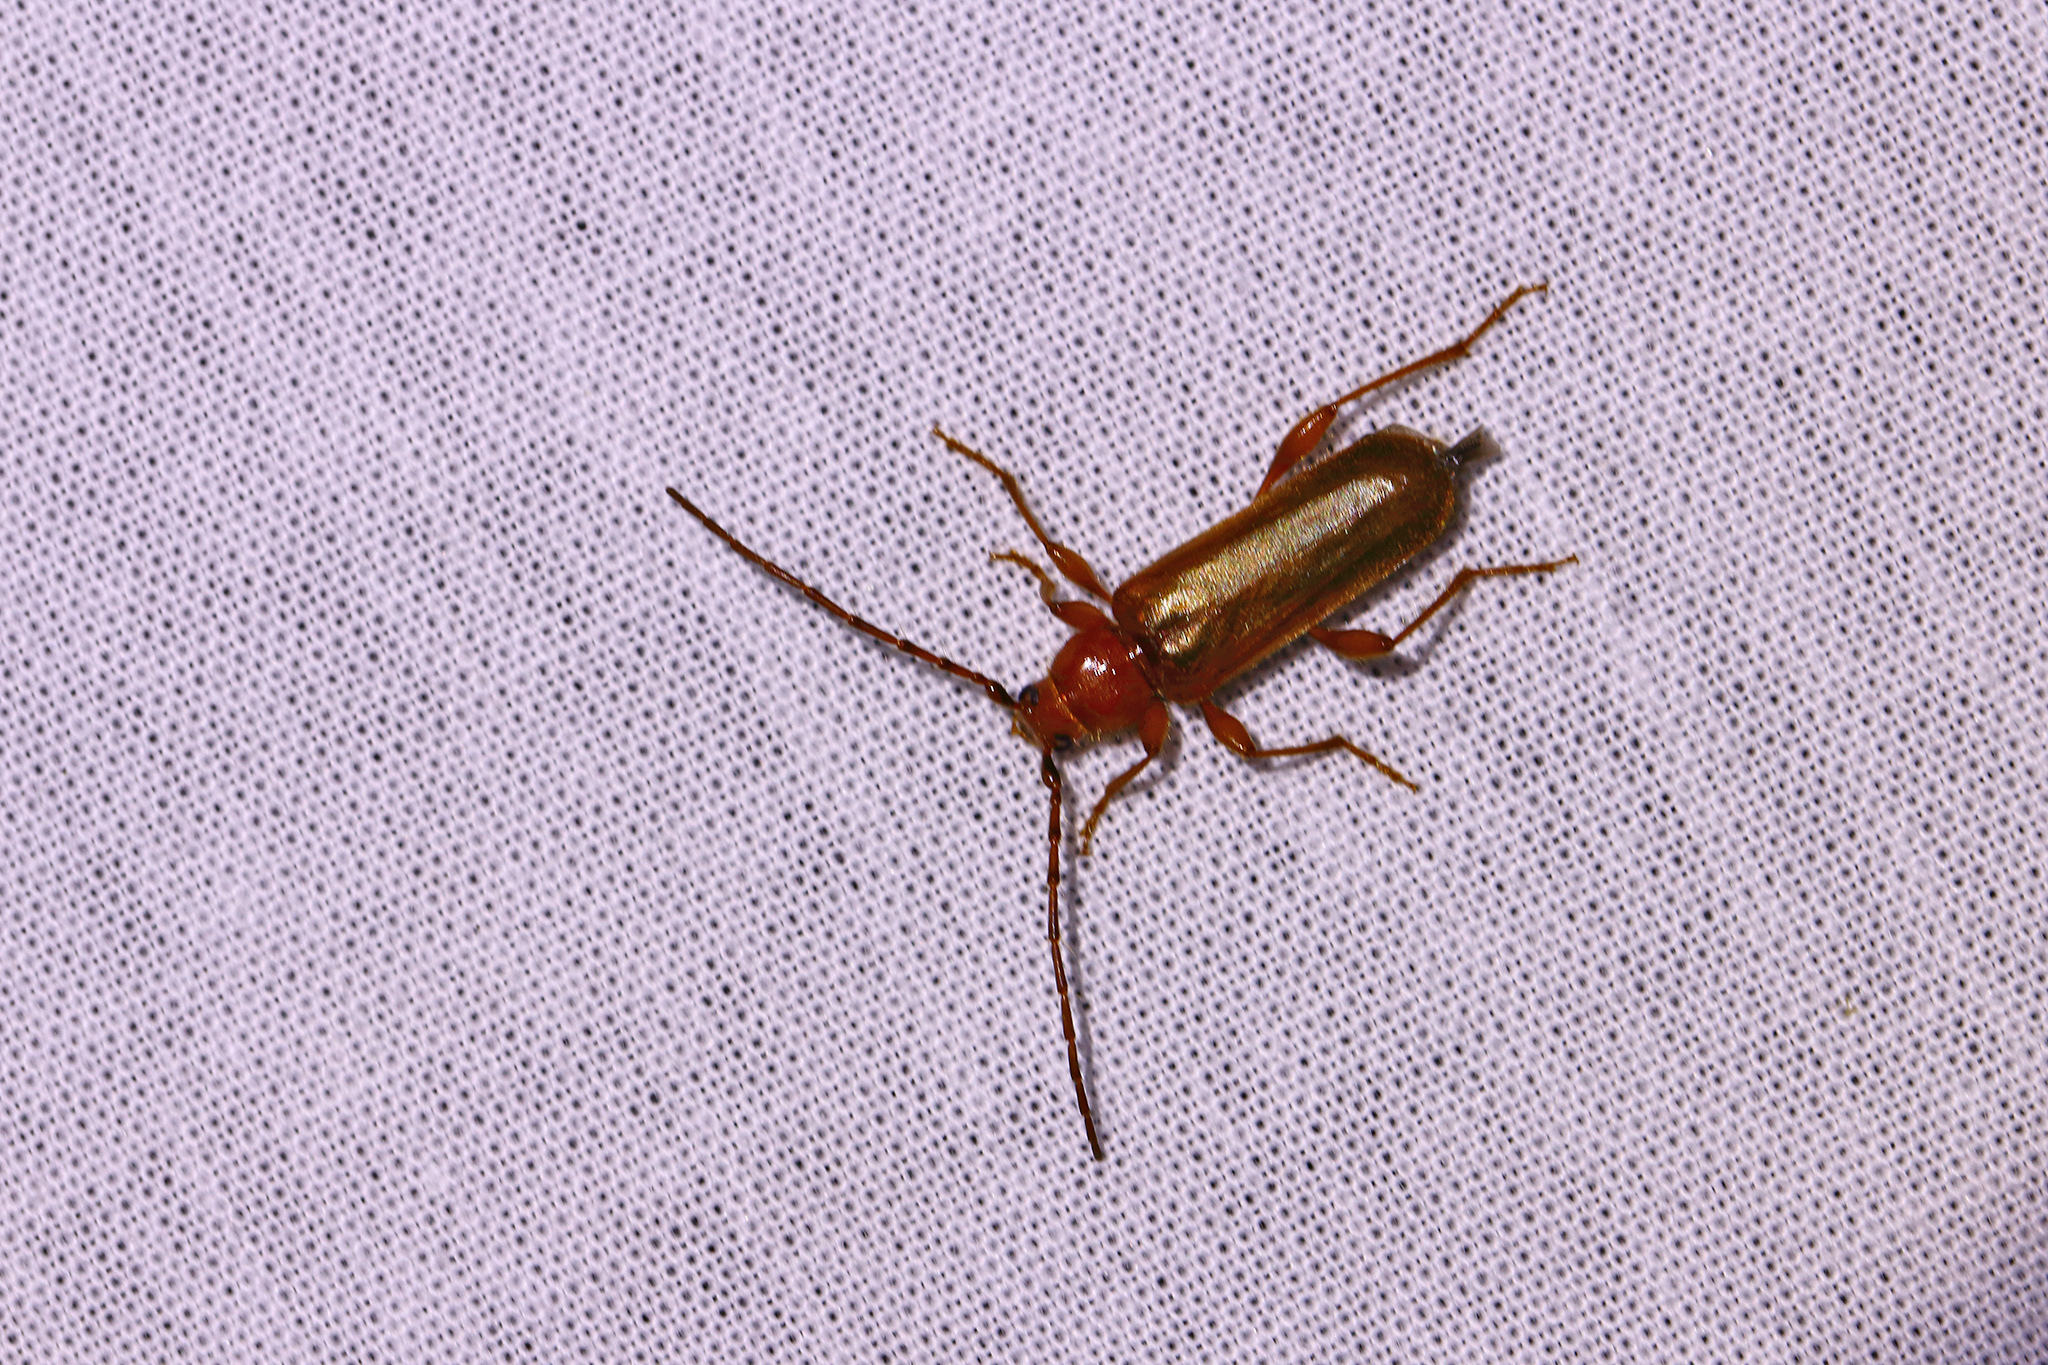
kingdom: Animalia
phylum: Arthropoda
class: Insecta
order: Coleoptera
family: Cerambycidae
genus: Phymatodes
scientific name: Phymatodes testaceus
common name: Long-horned beetle
